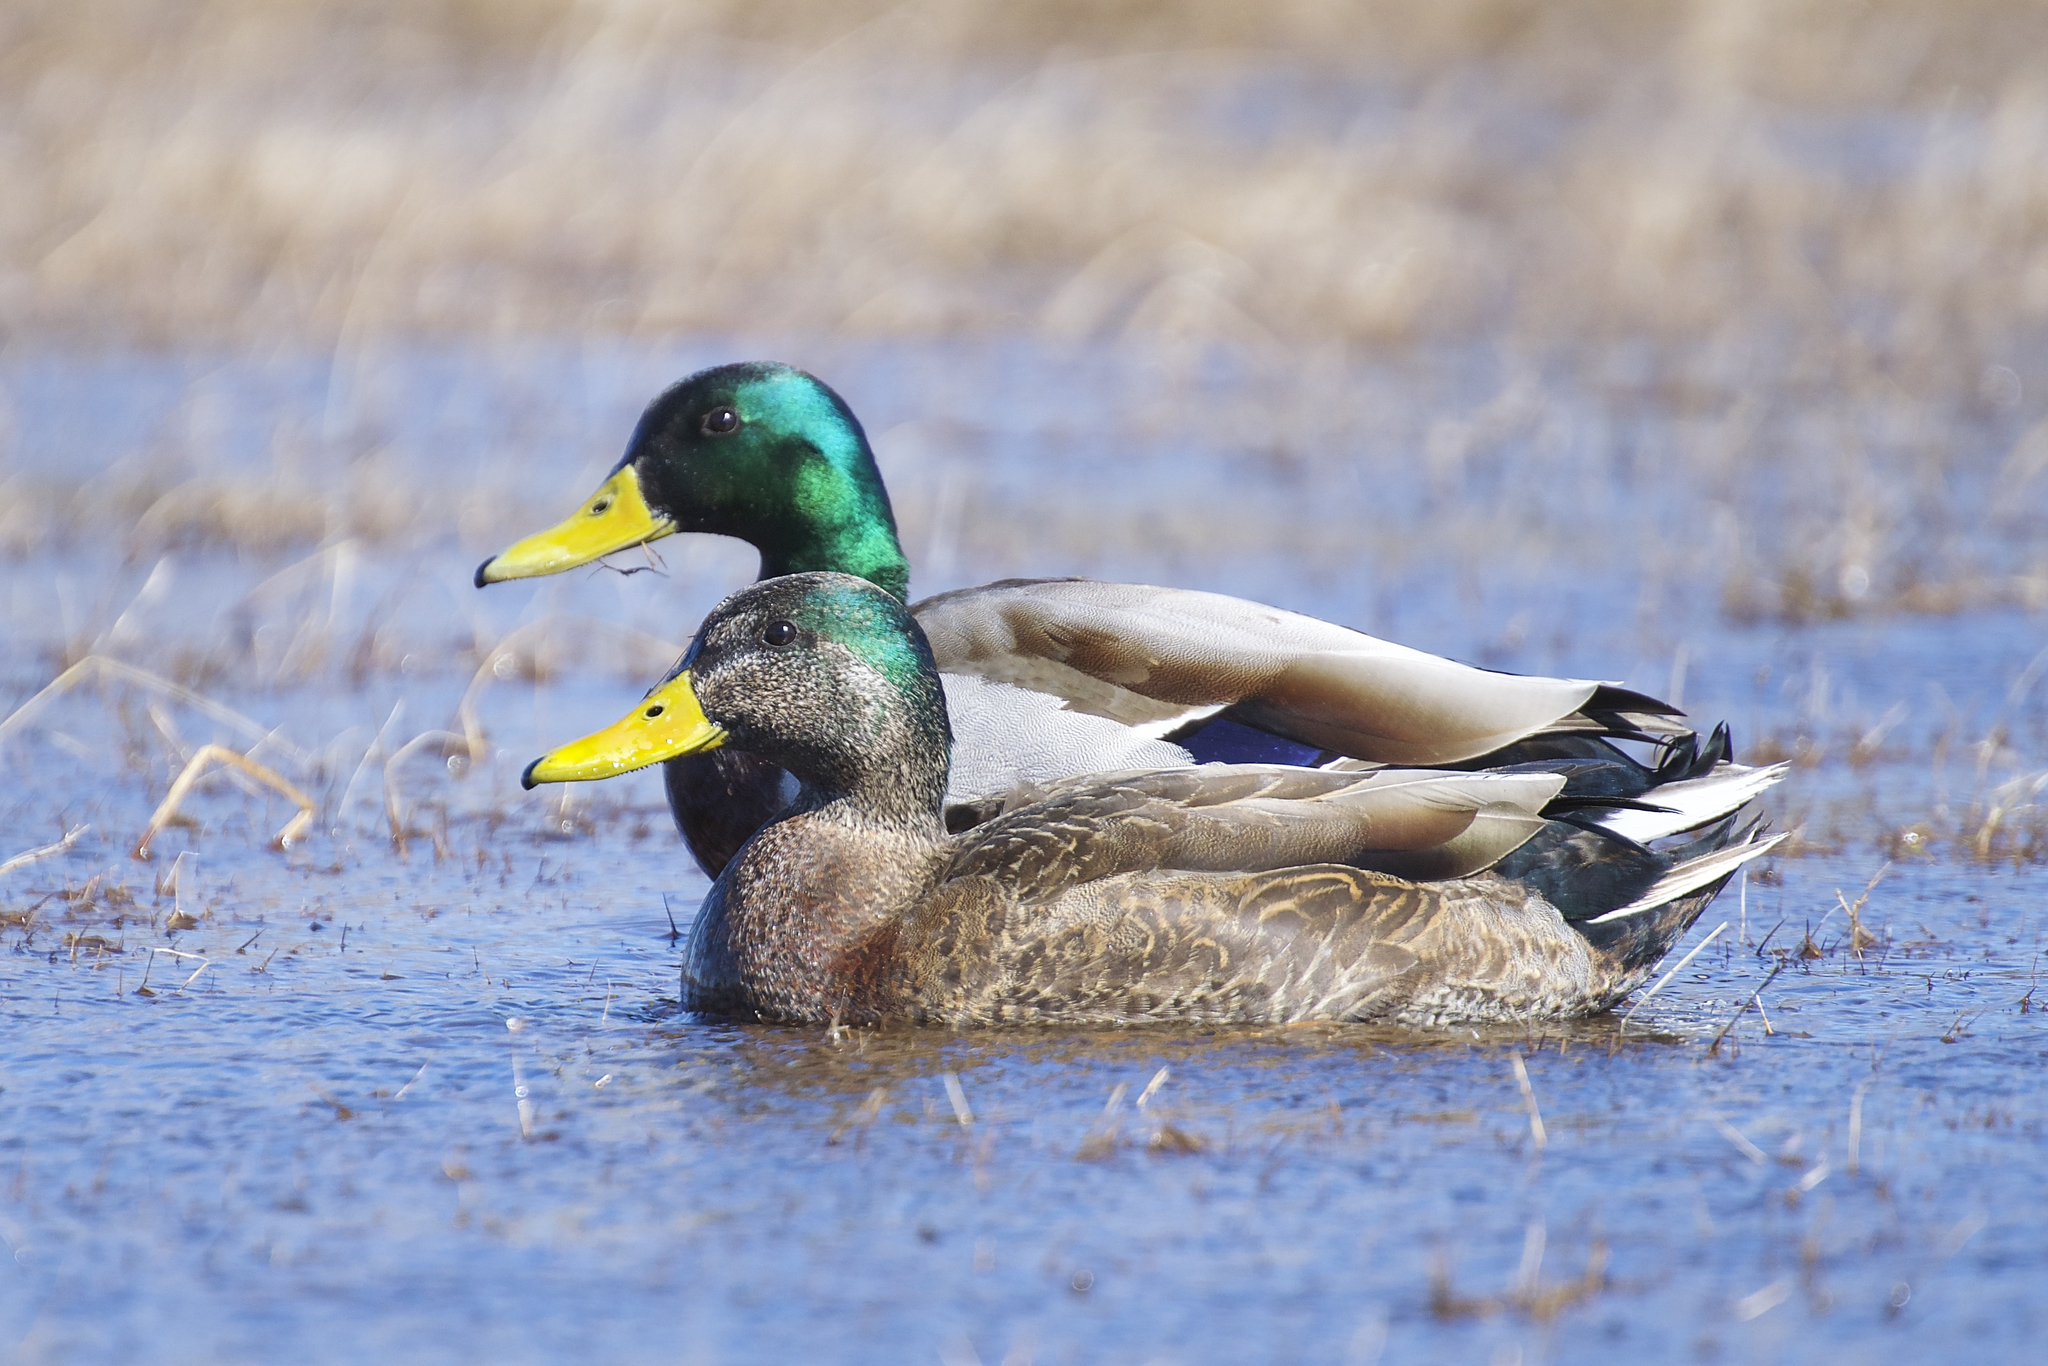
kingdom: Animalia
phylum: Chordata
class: Aves
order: Anseriformes
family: Anatidae
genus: Anas
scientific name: Anas
